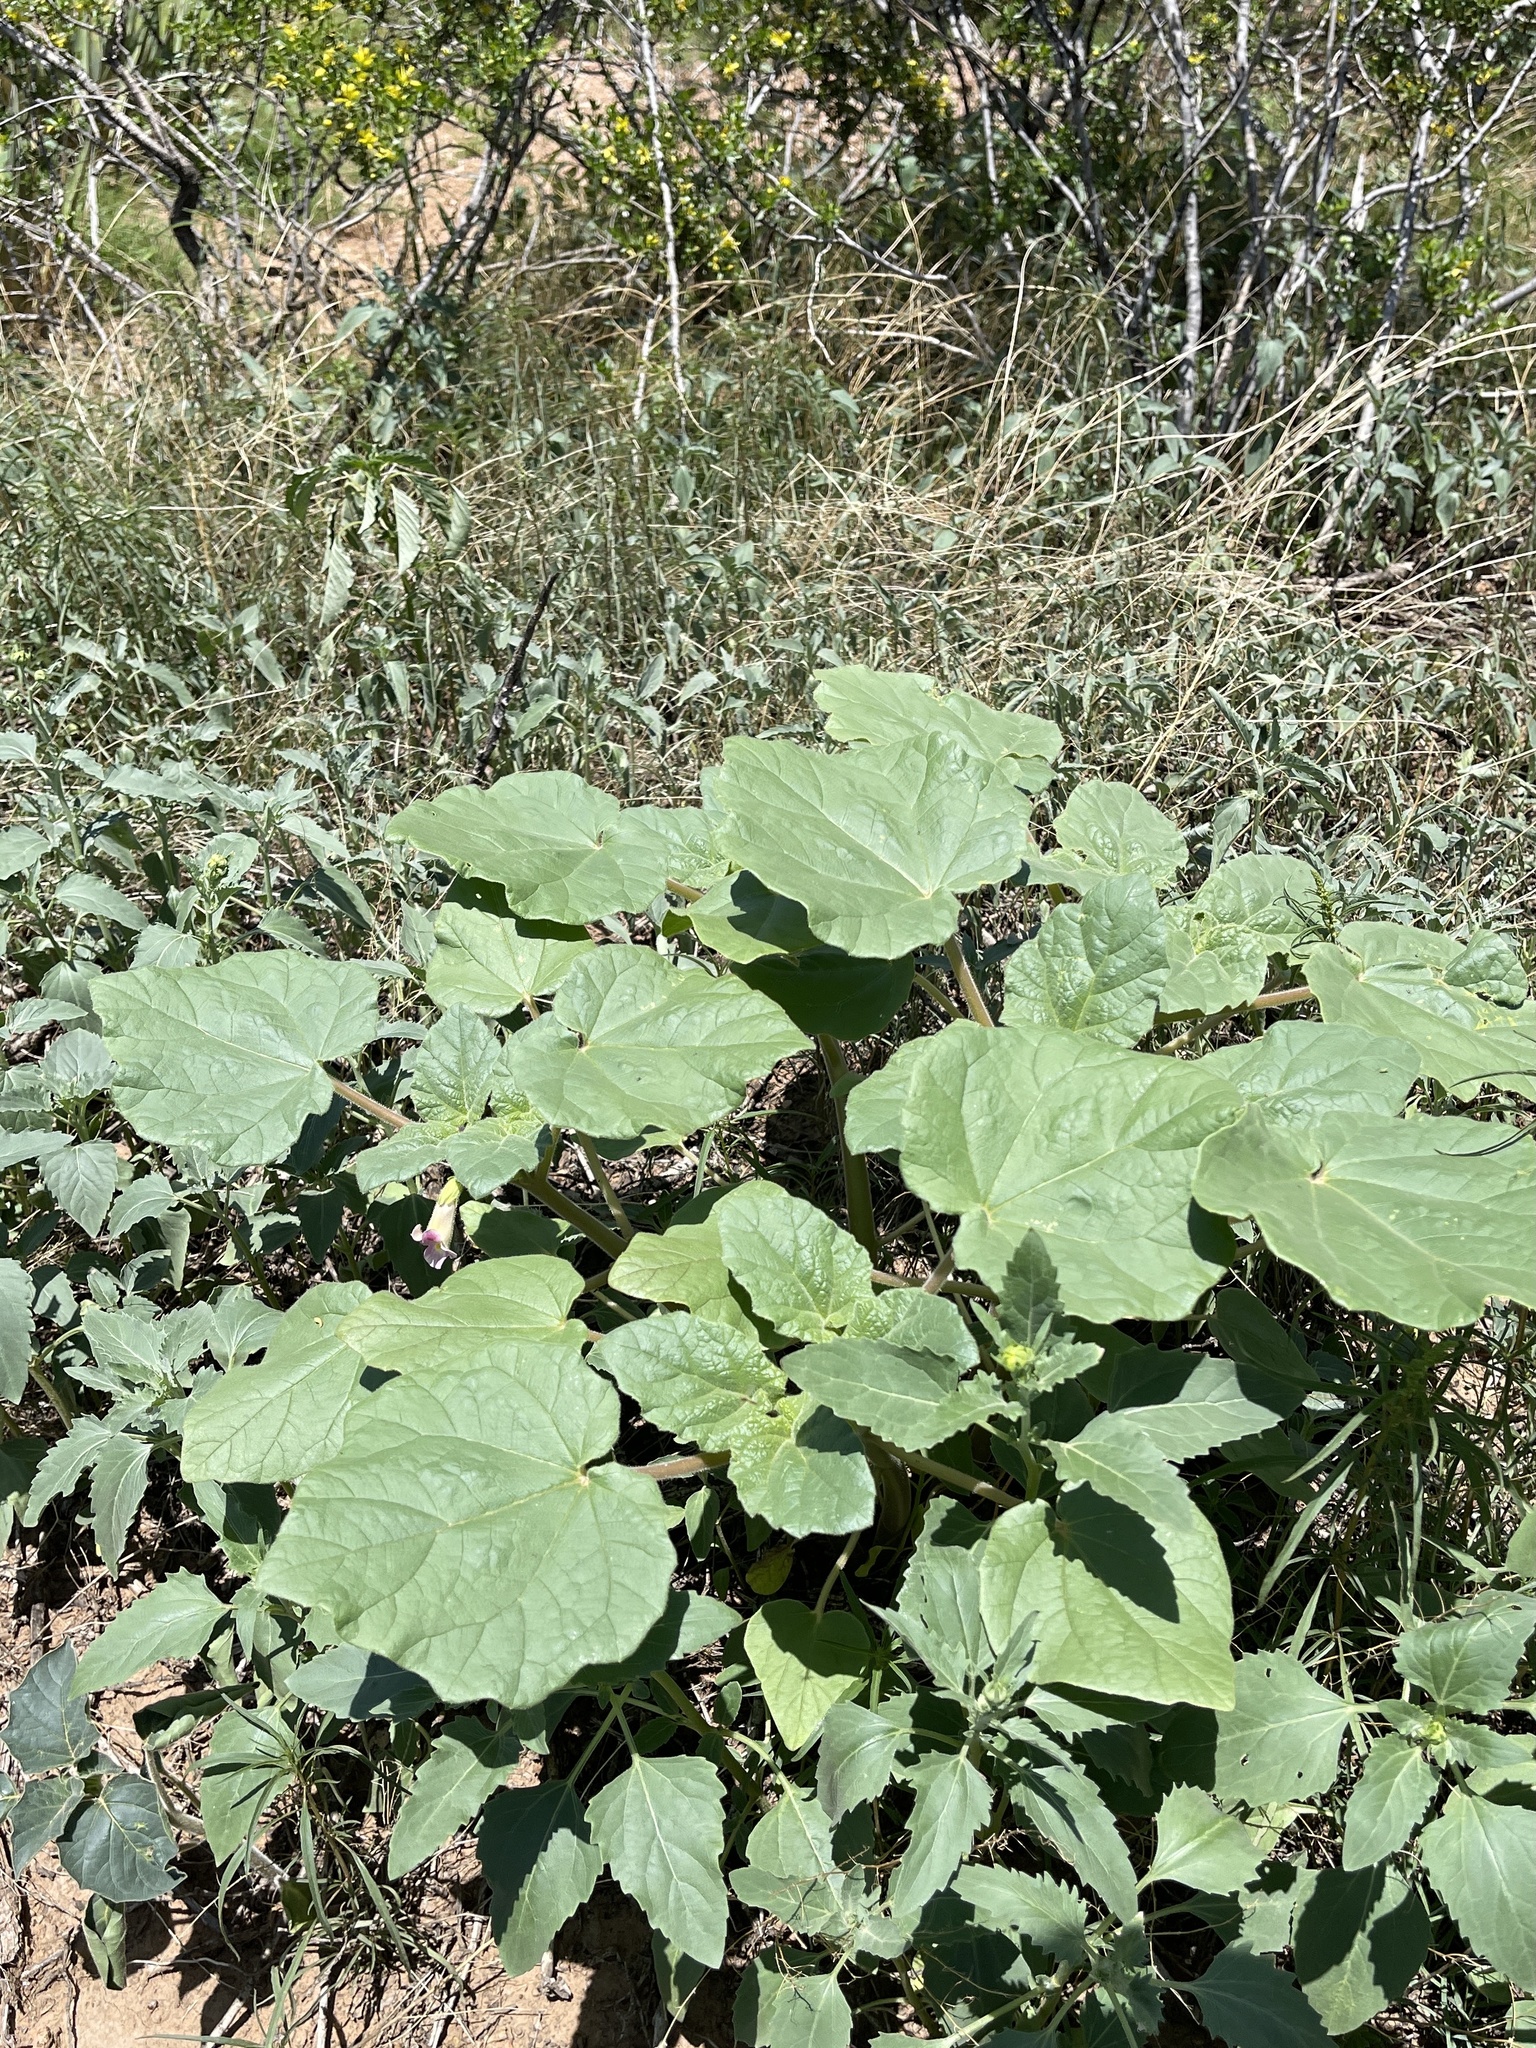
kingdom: Plantae
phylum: Tracheophyta
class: Magnoliopsida
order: Lamiales
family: Martyniaceae
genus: Proboscidea
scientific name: Proboscidea parviflora
